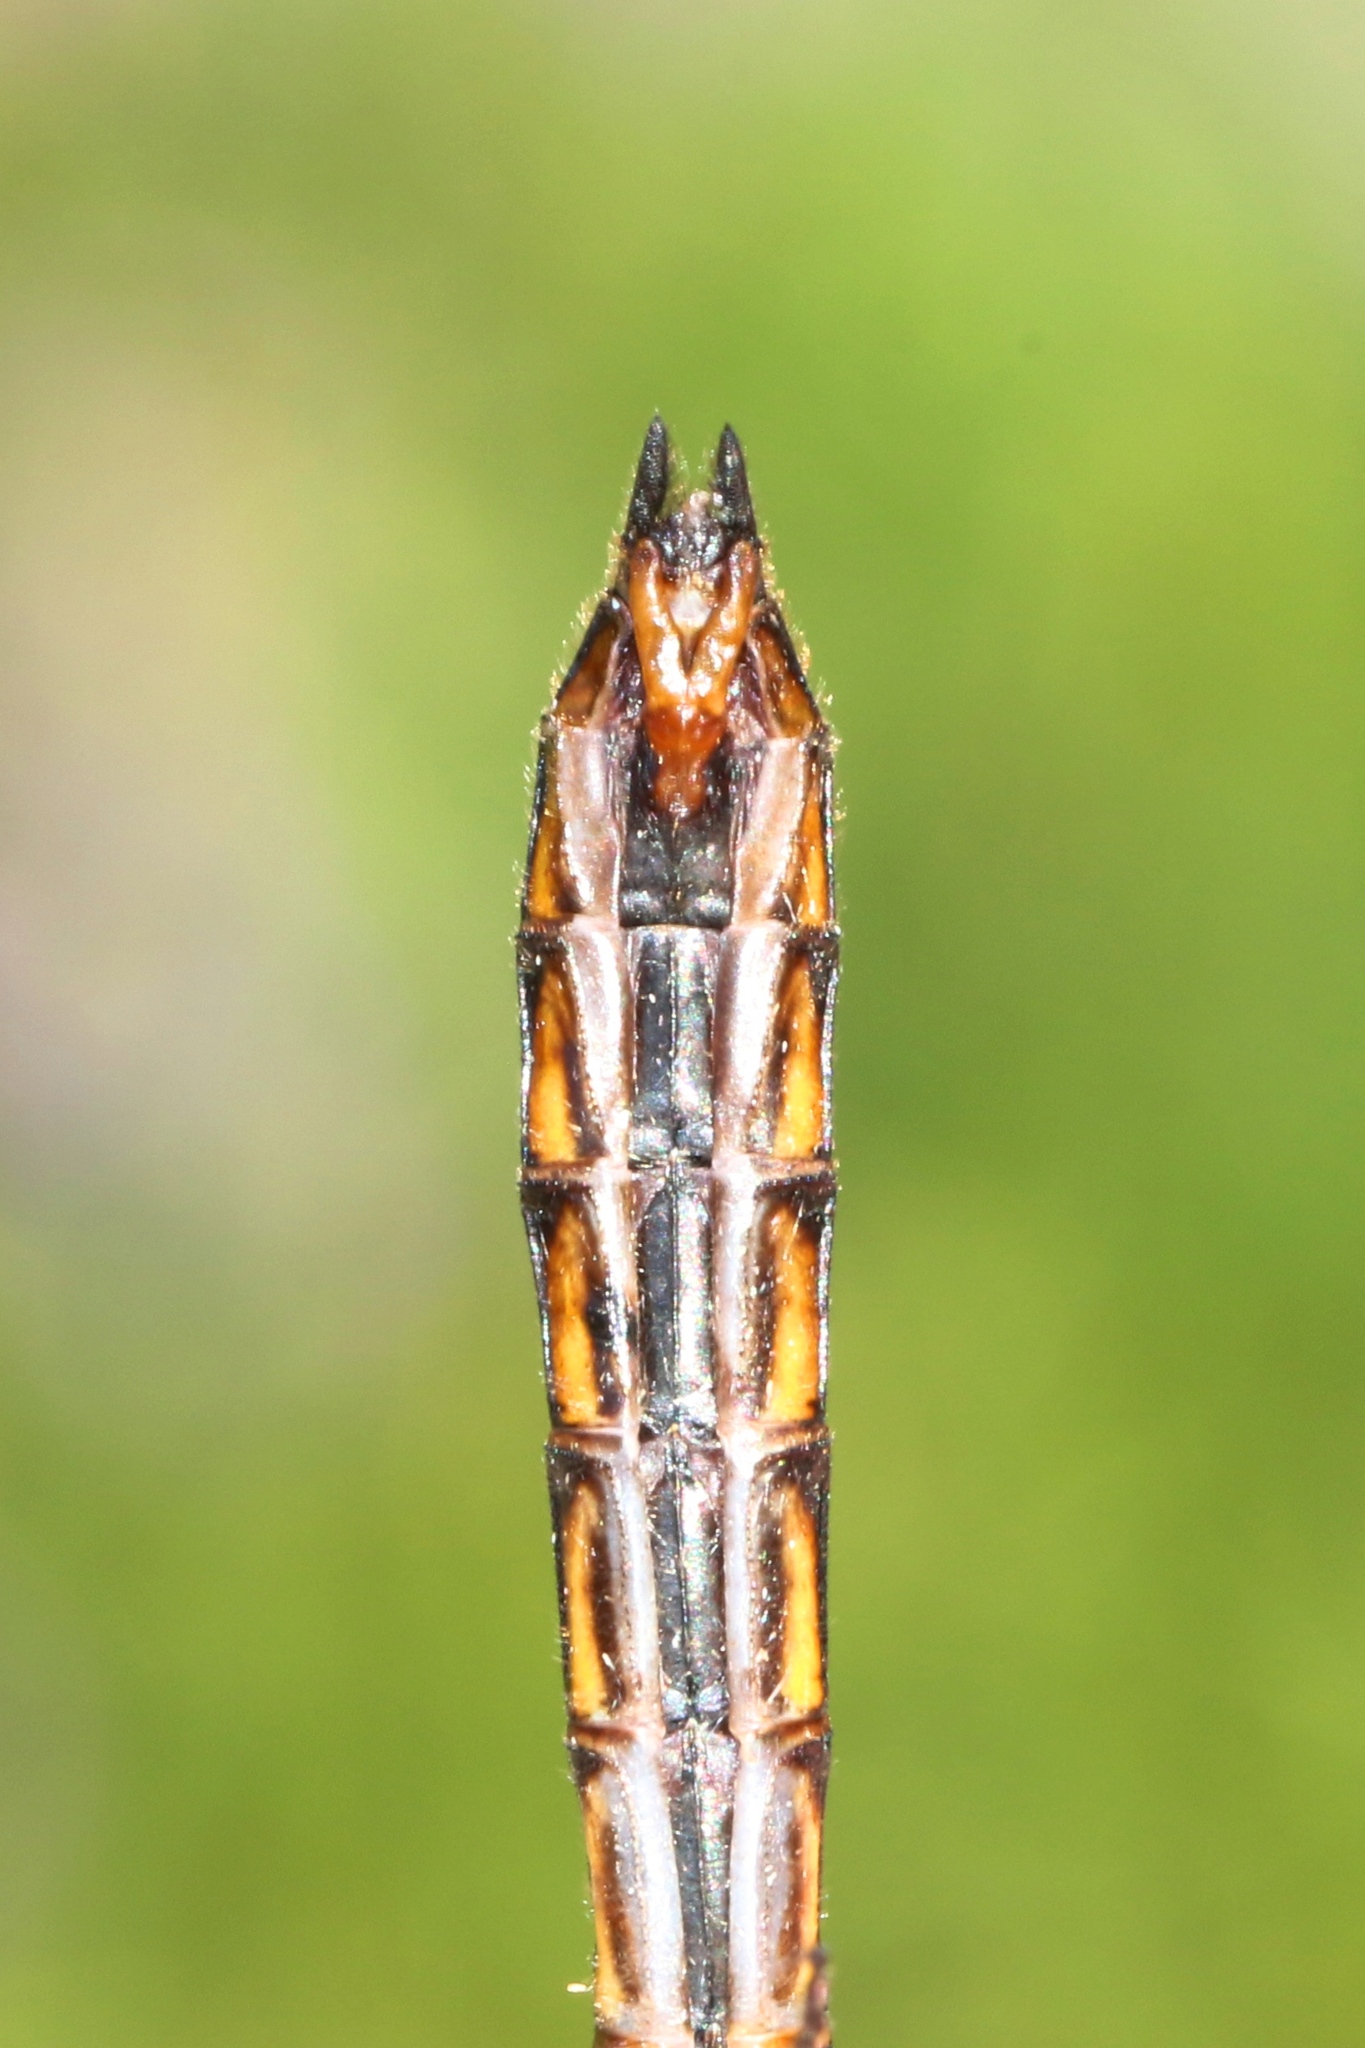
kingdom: Animalia
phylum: Arthropoda
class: Insecta
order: Odonata
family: Corduliidae
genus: Epitheca
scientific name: Epitheca cynosura
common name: Common baskettail
